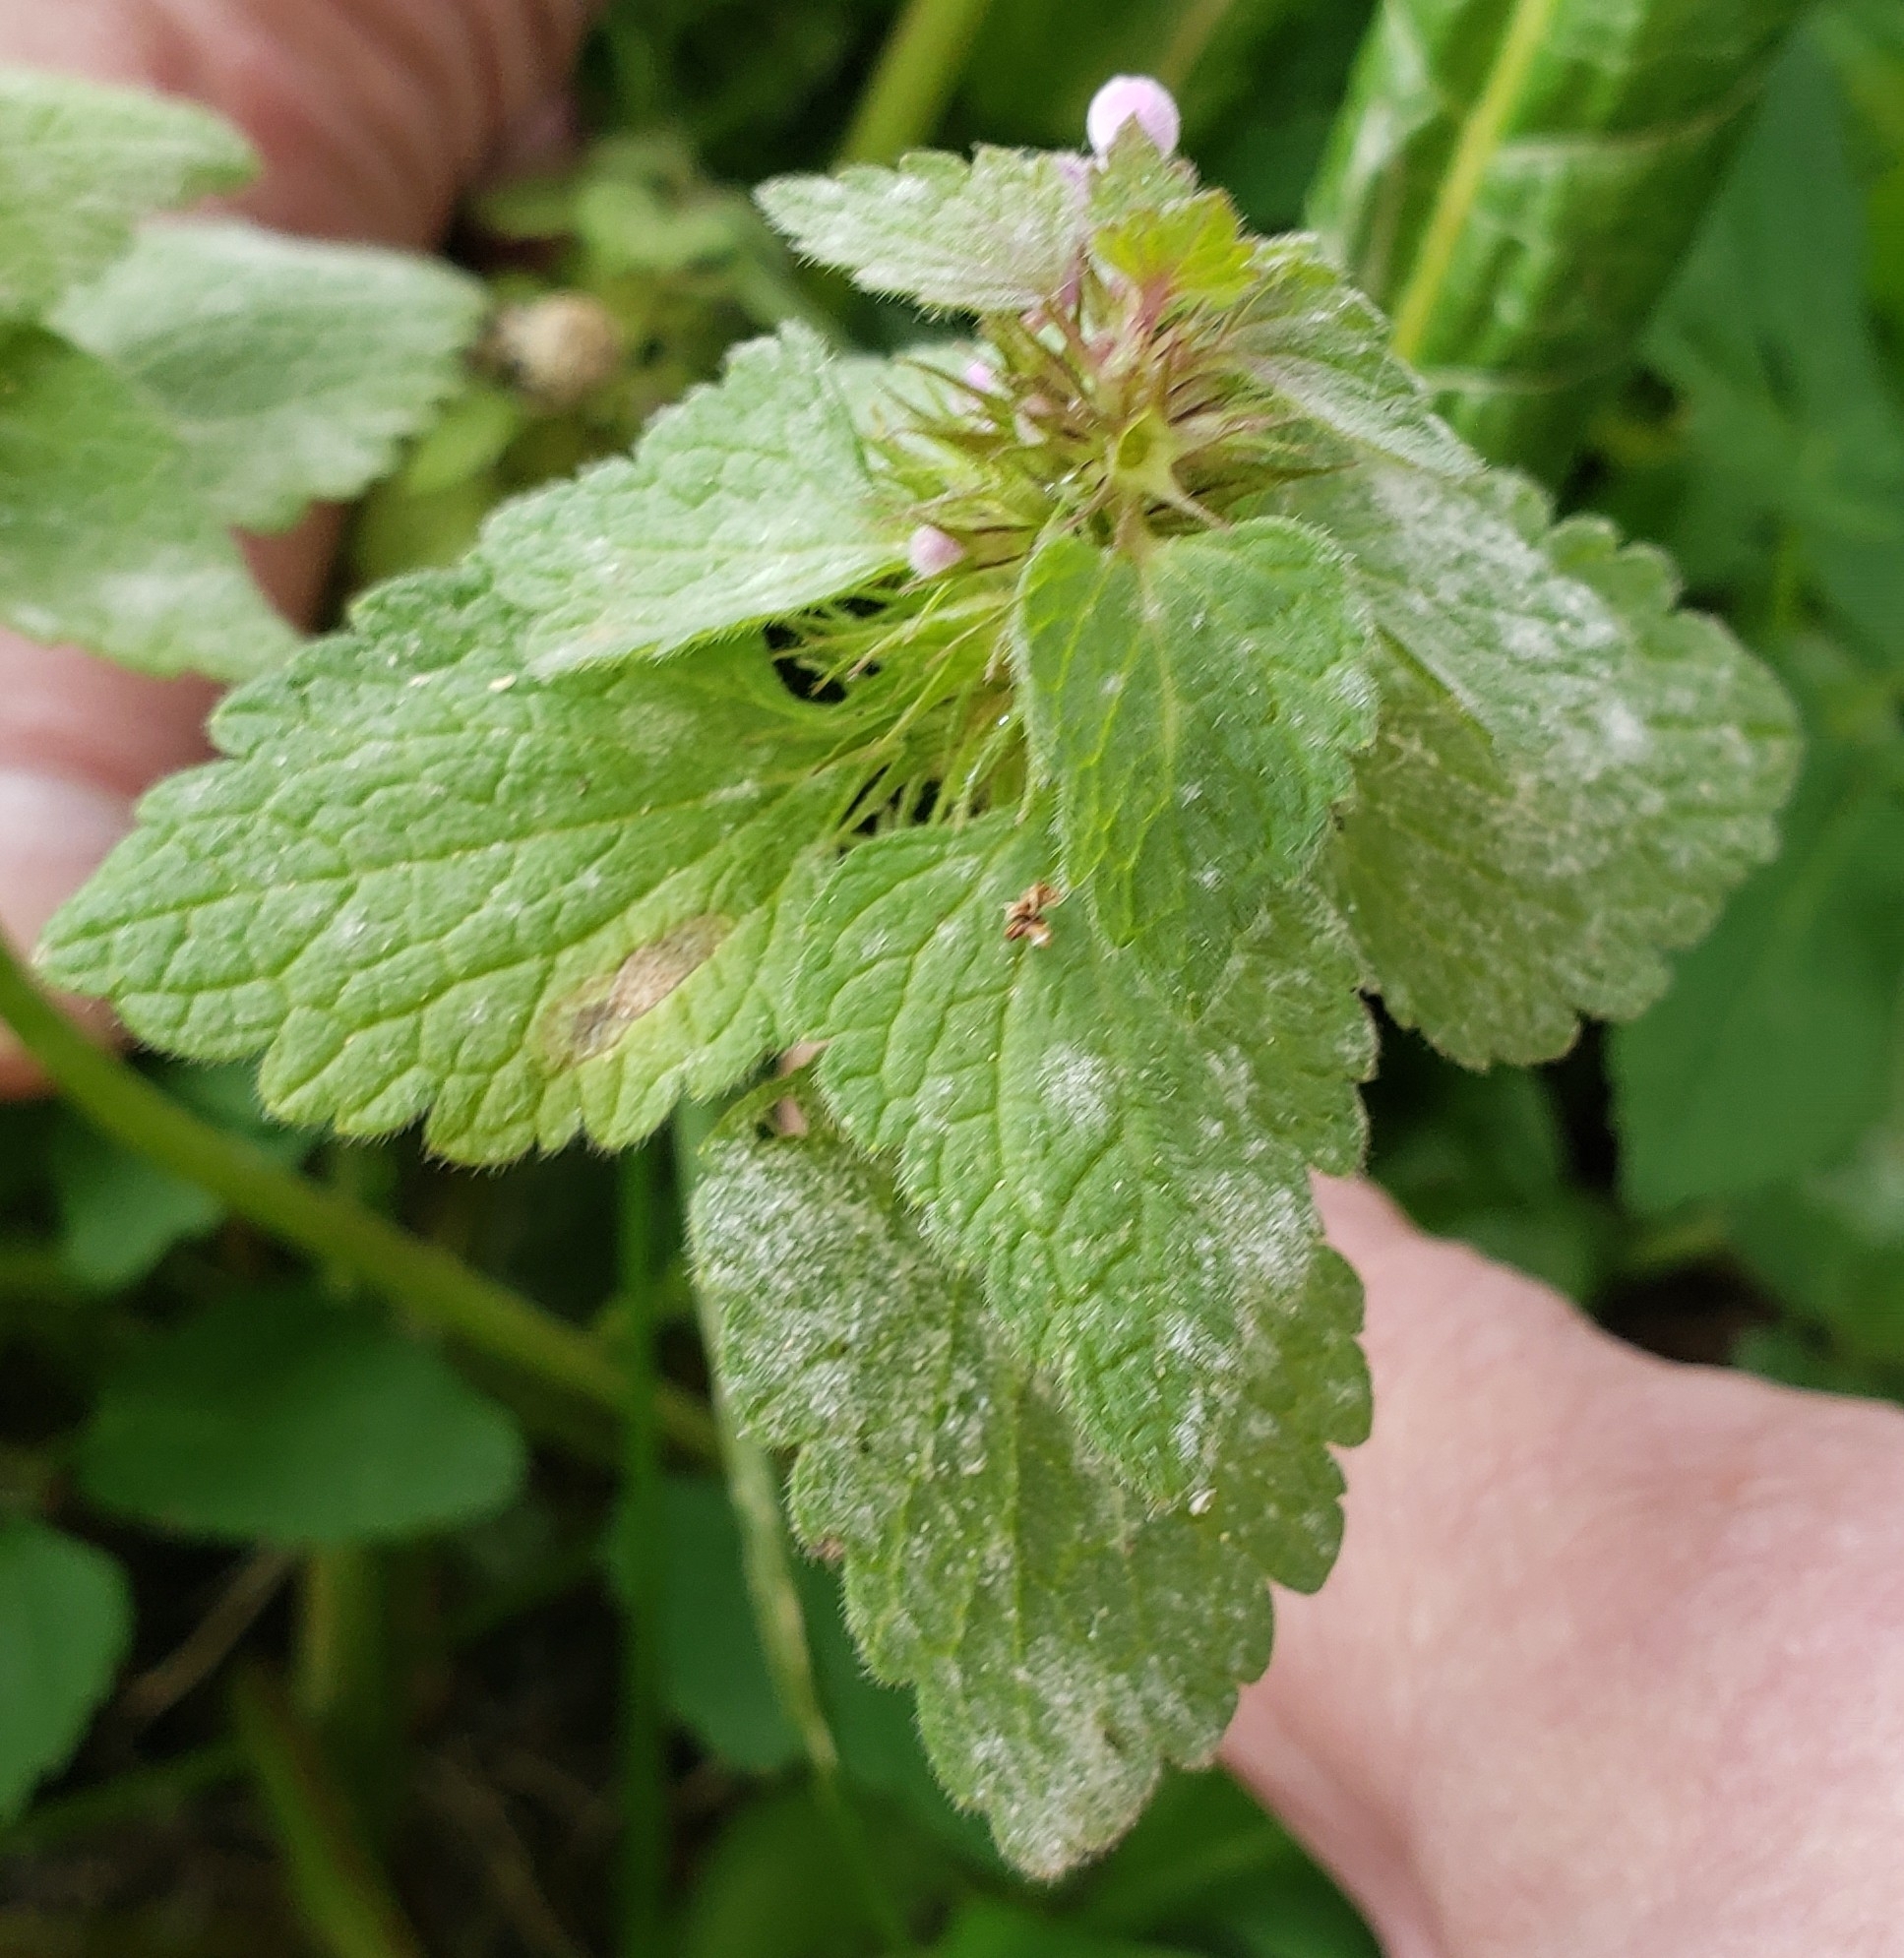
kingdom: Plantae
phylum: Tracheophyta
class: Magnoliopsida
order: Lamiales
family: Lamiaceae
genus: Lamium
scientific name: Lamium purpureum
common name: Red dead-nettle
